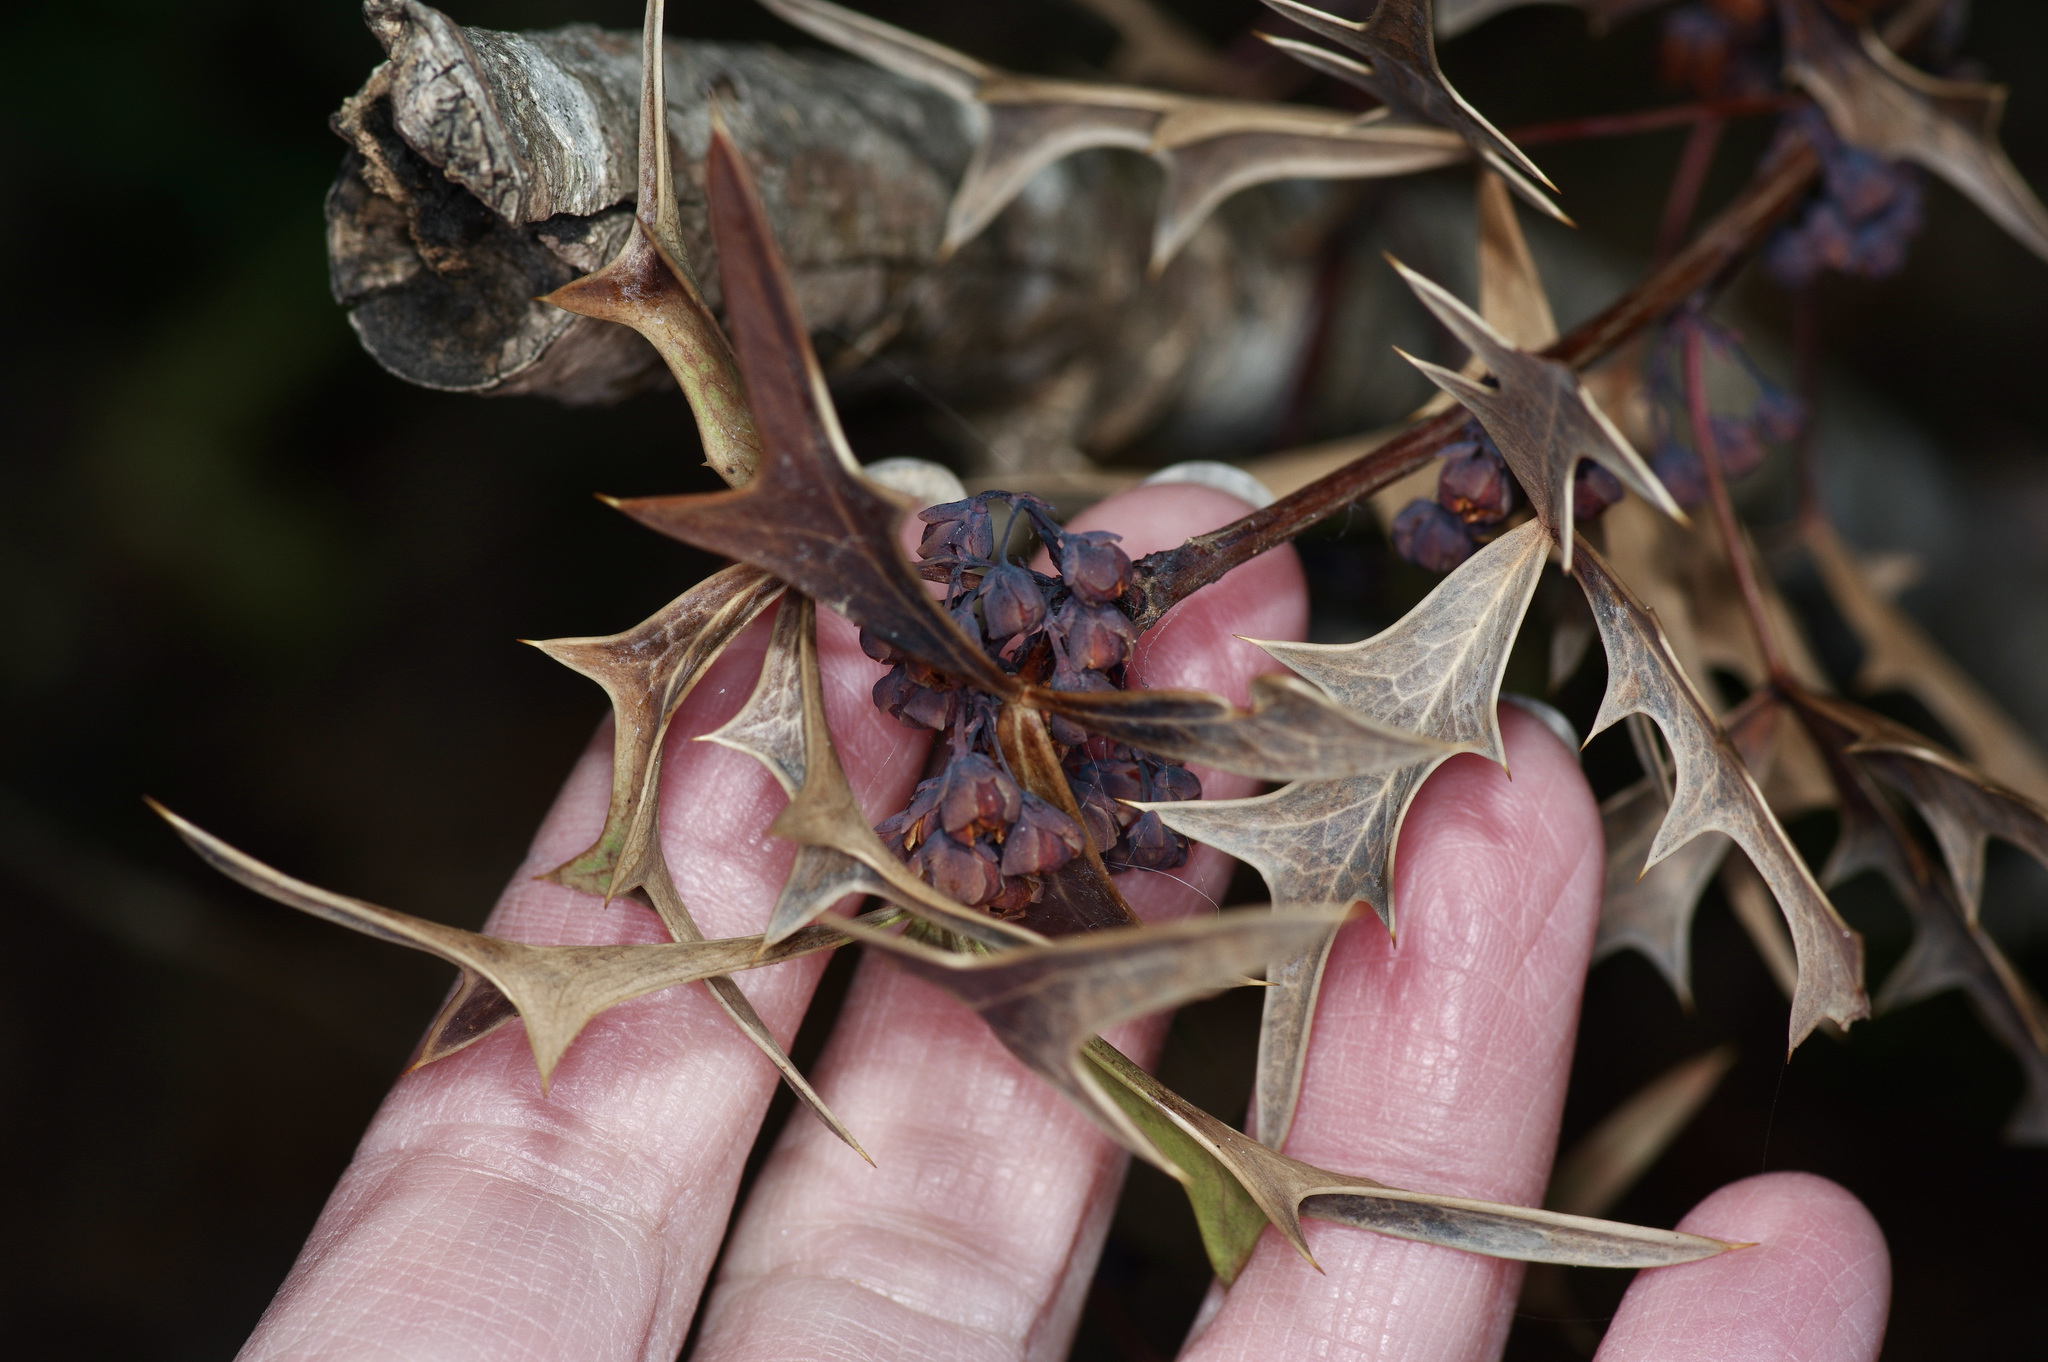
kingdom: Plantae
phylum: Tracheophyta
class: Magnoliopsida
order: Ranunculales
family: Berberidaceae
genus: Alloberberis
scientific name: Alloberberis trifoliolata
